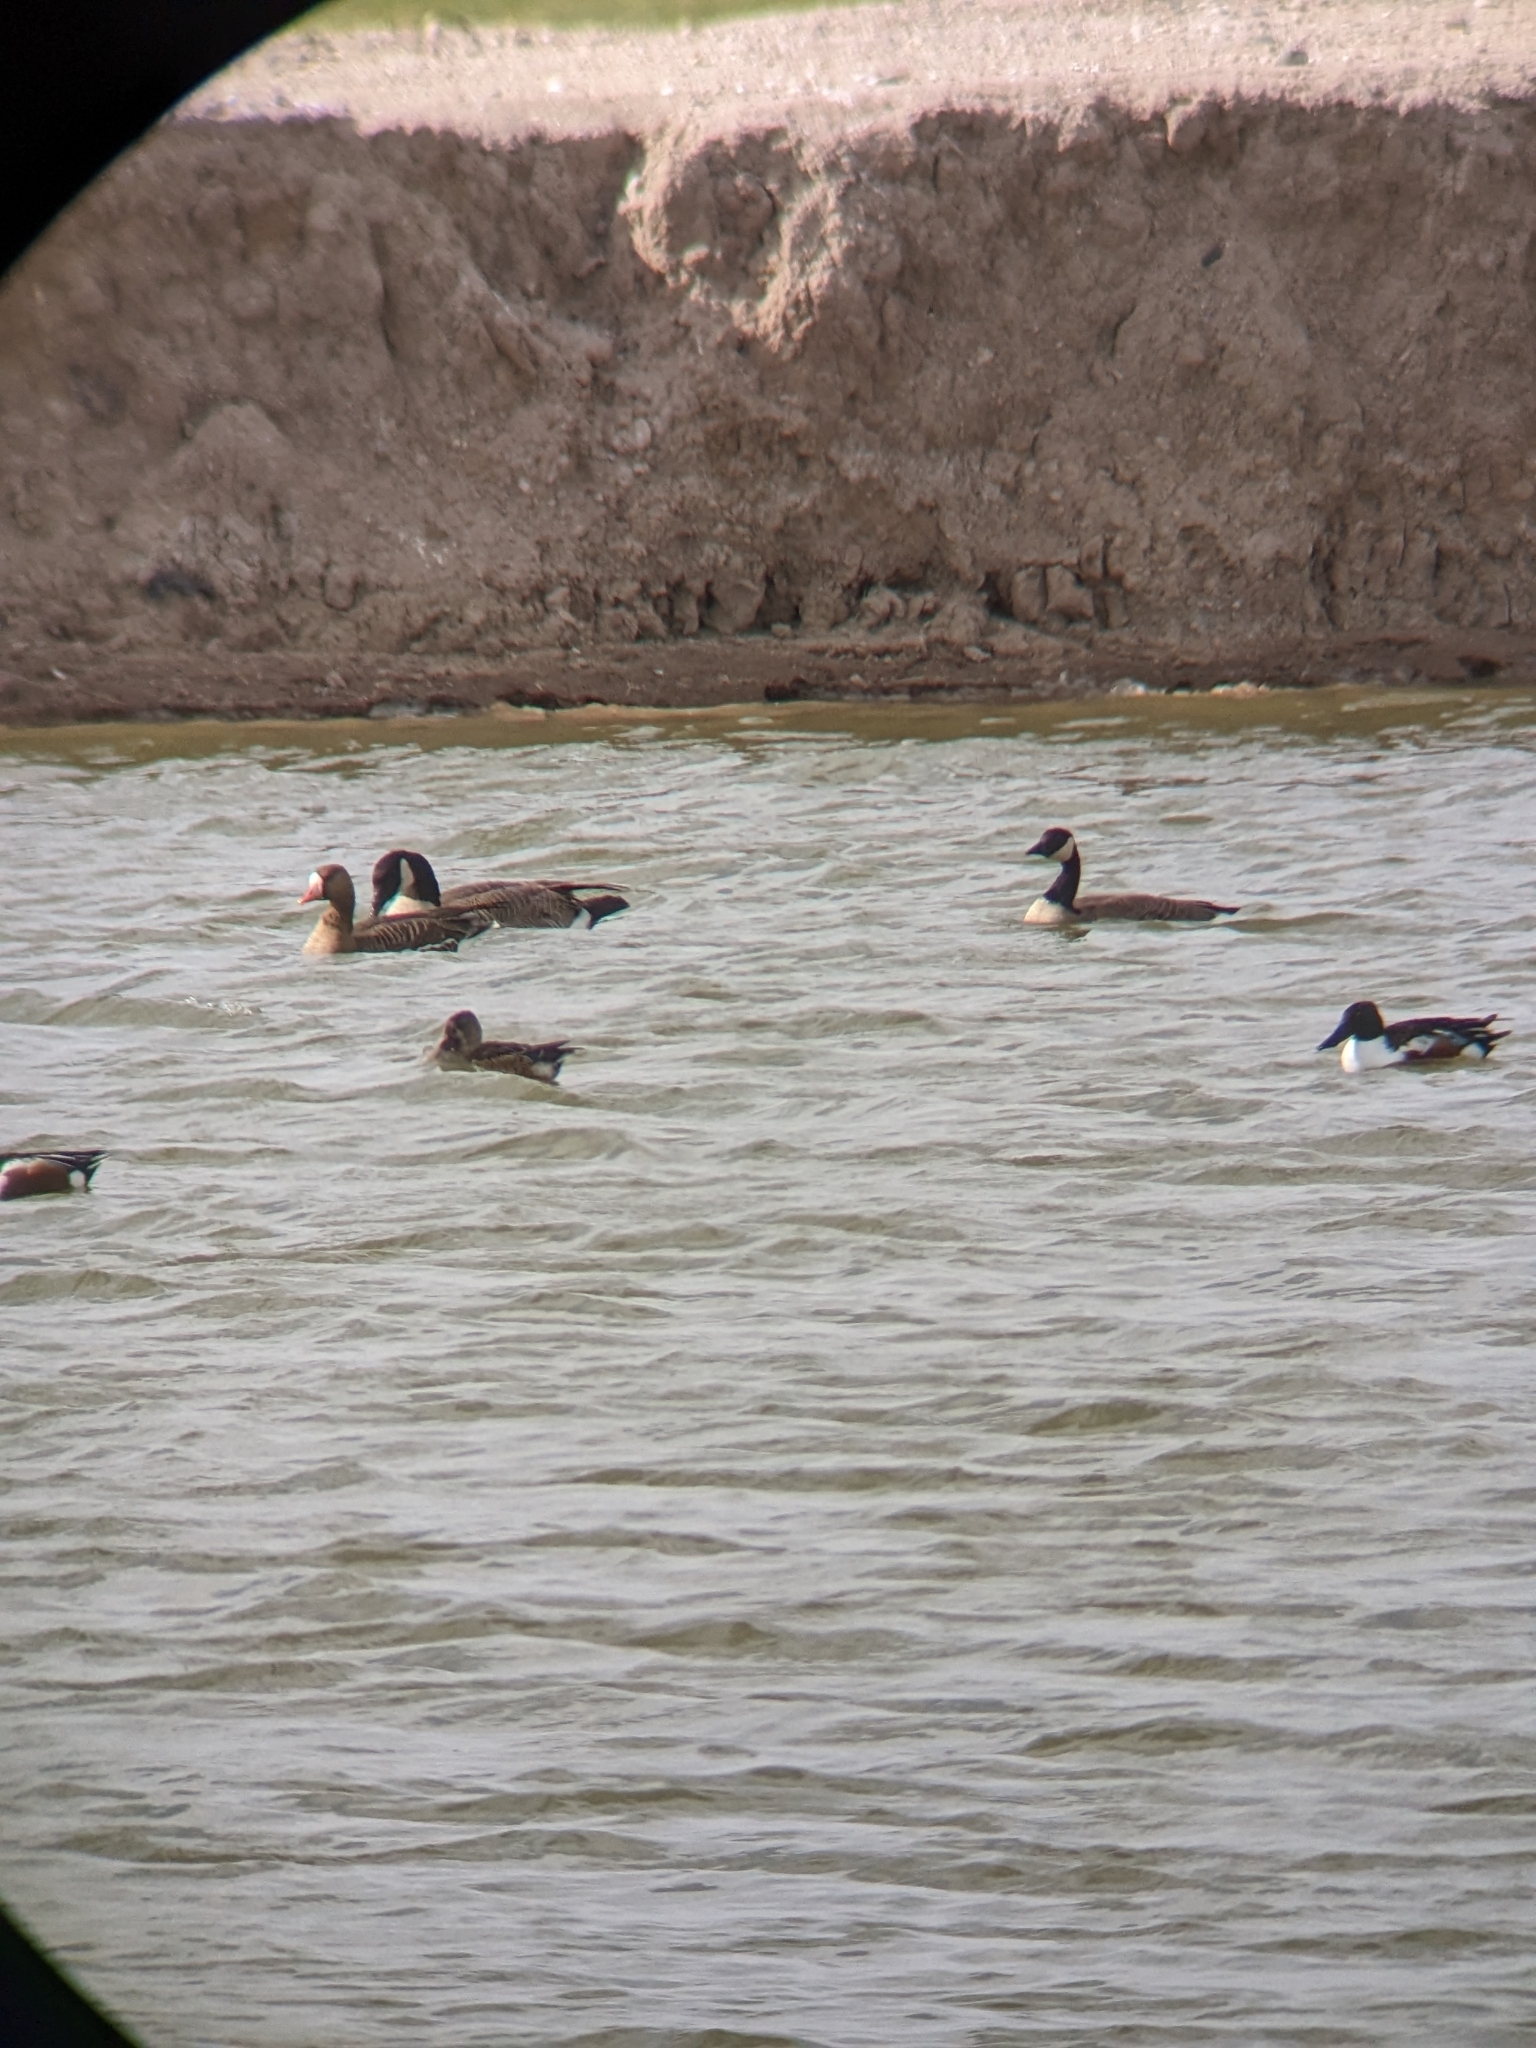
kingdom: Animalia
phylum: Chordata
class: Aves
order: Anseriformes
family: Anatidae
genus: Anser
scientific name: Anser albifrons
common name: Greater white-fronted goose
